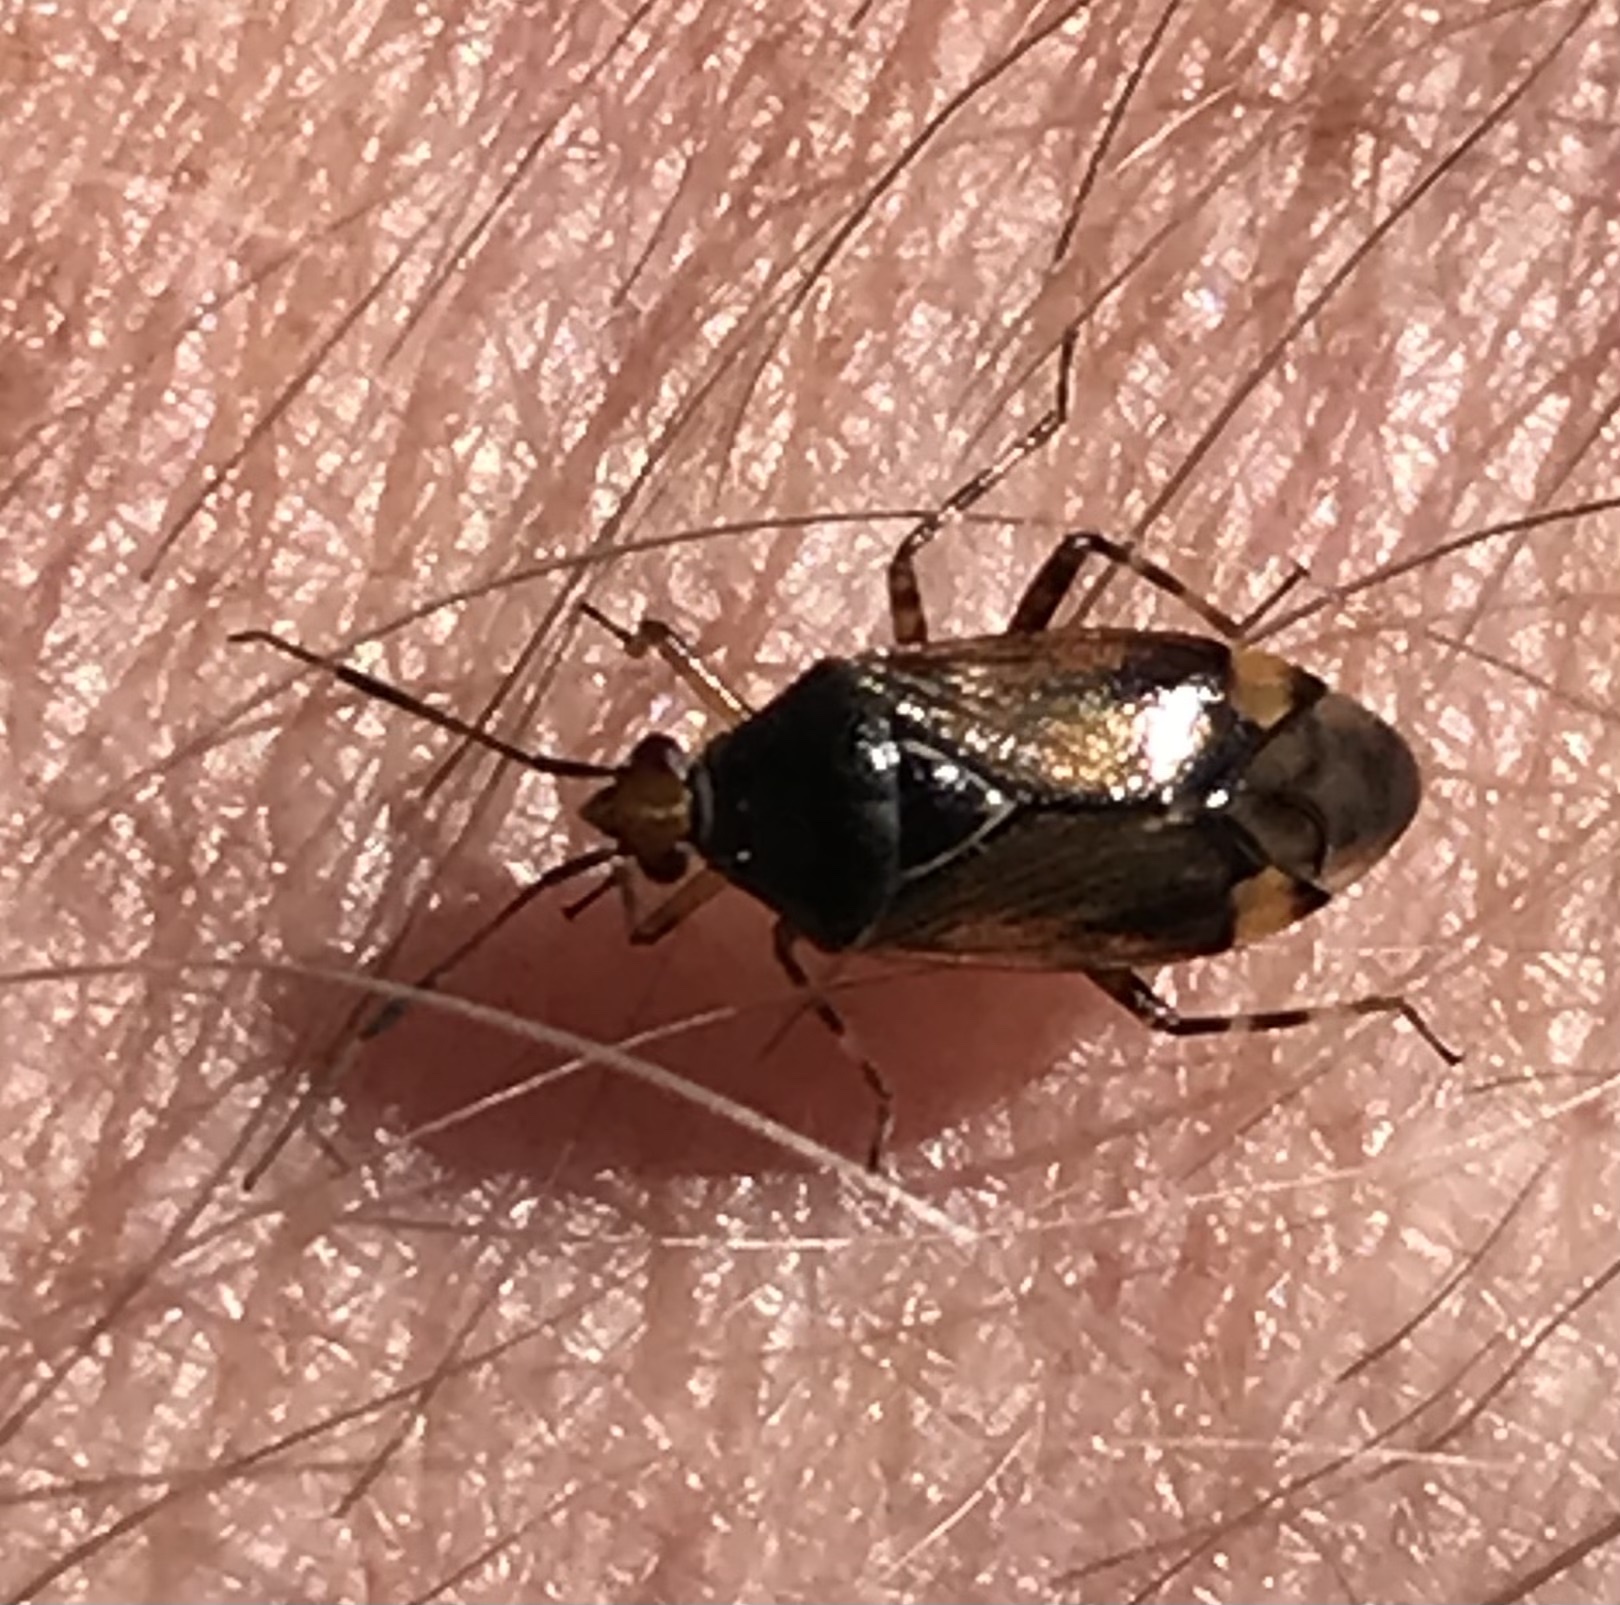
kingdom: Animalia
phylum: Arthropoda
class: Insecta
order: Hemiptera
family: Miridae
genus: Deraeocoris
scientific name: Deraeocoris flavilinea
